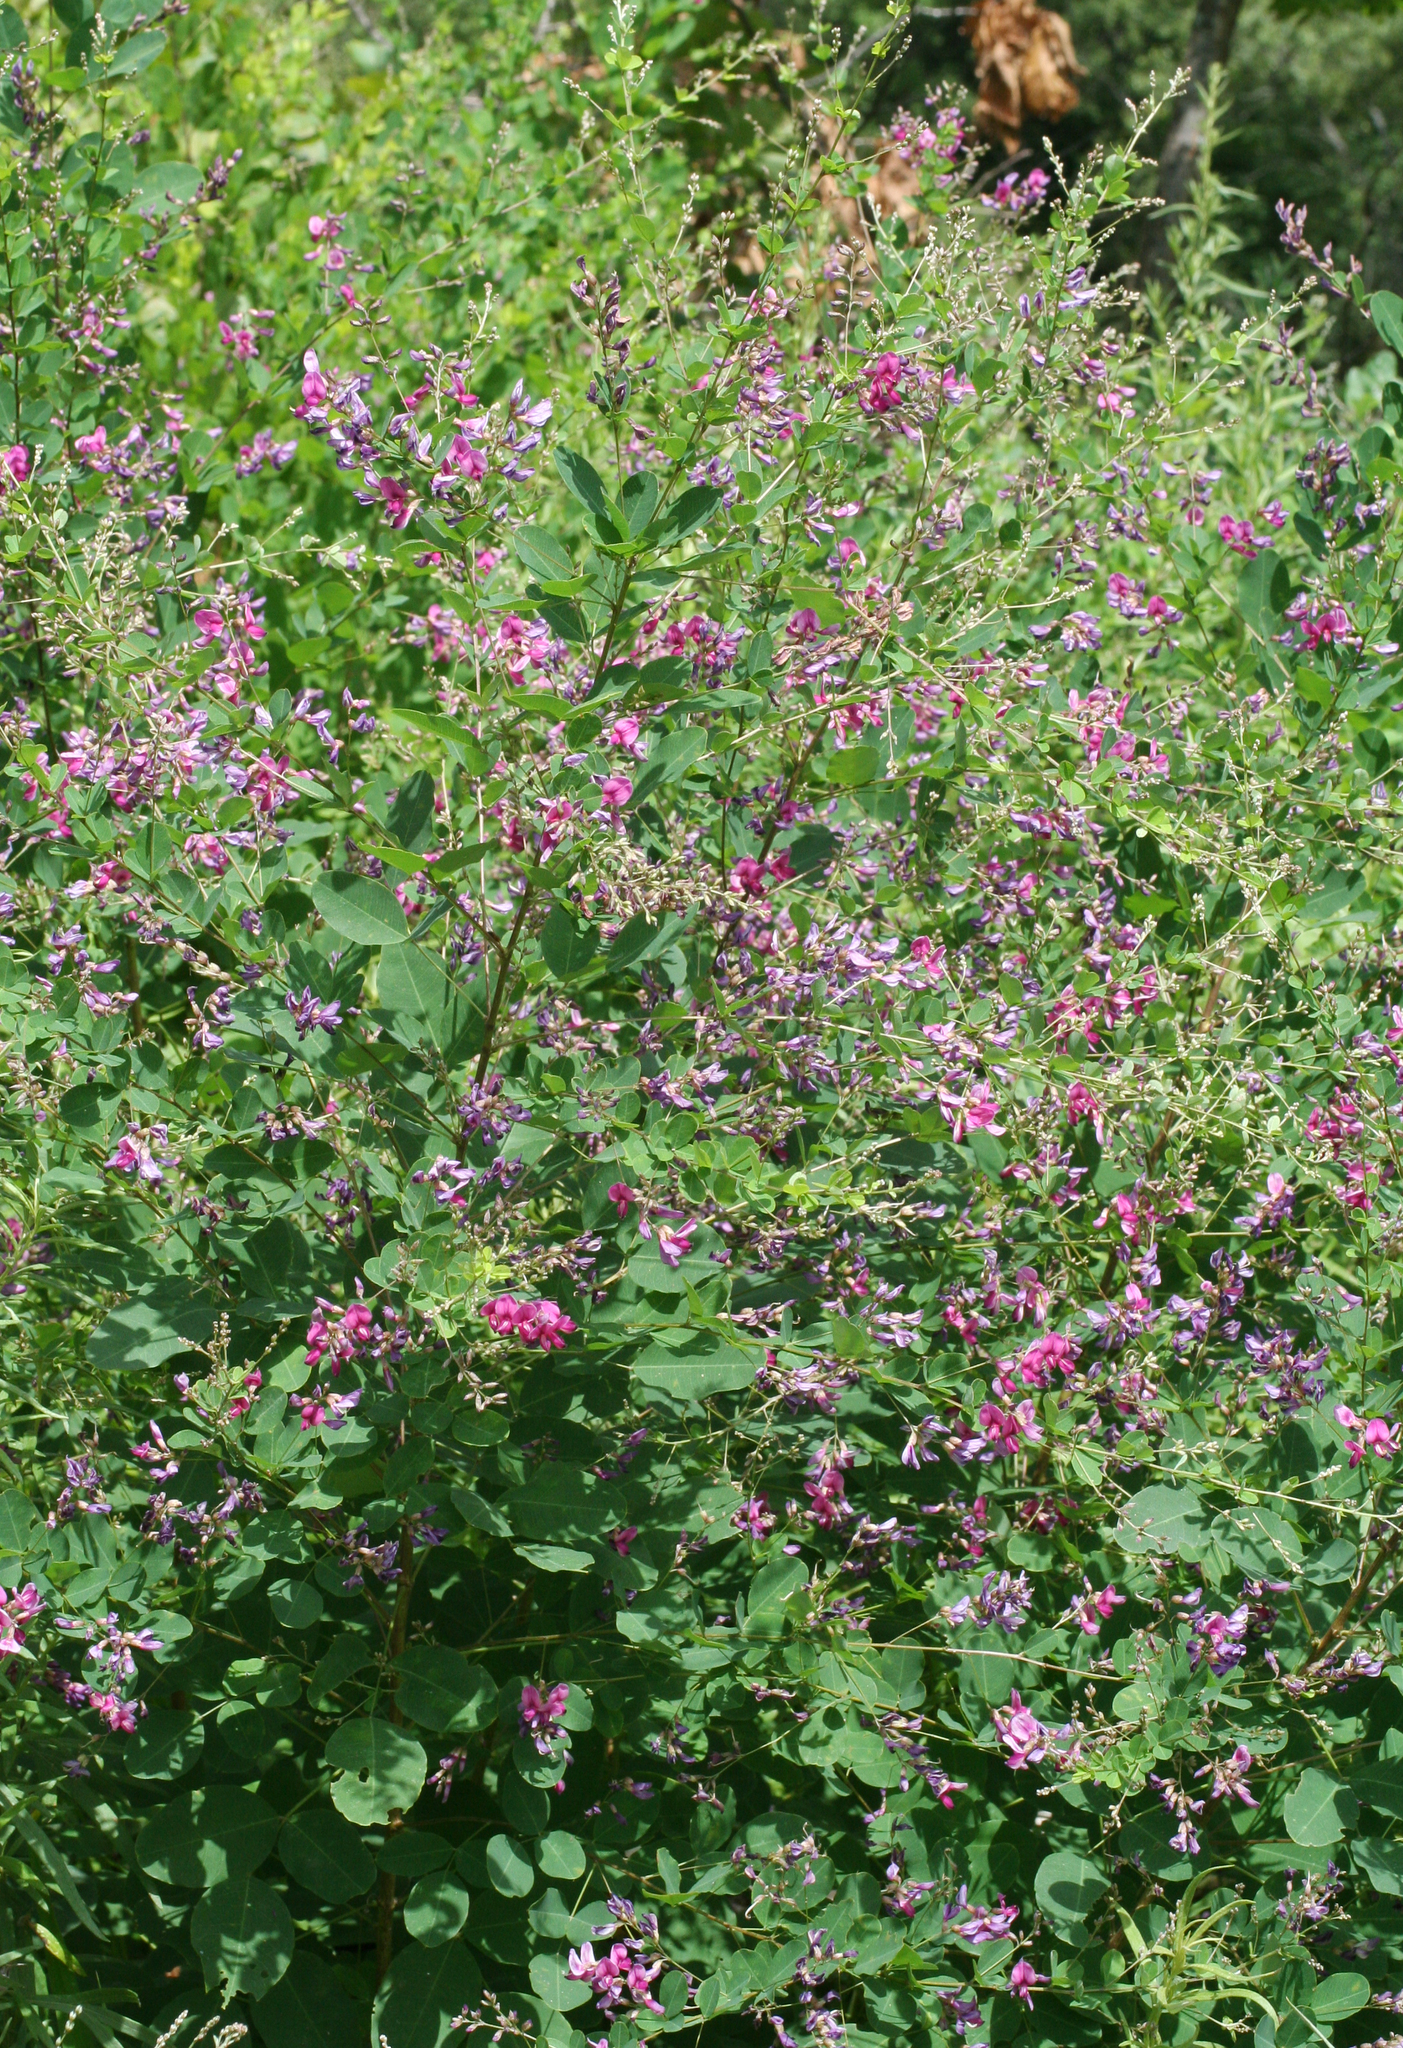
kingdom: Plantae
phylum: Tracheophyta
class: Magnoliopsida
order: Fabales
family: Fabaceae
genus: Lespedeza
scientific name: Lespedeza bicolor
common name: Shrub lespedeza
